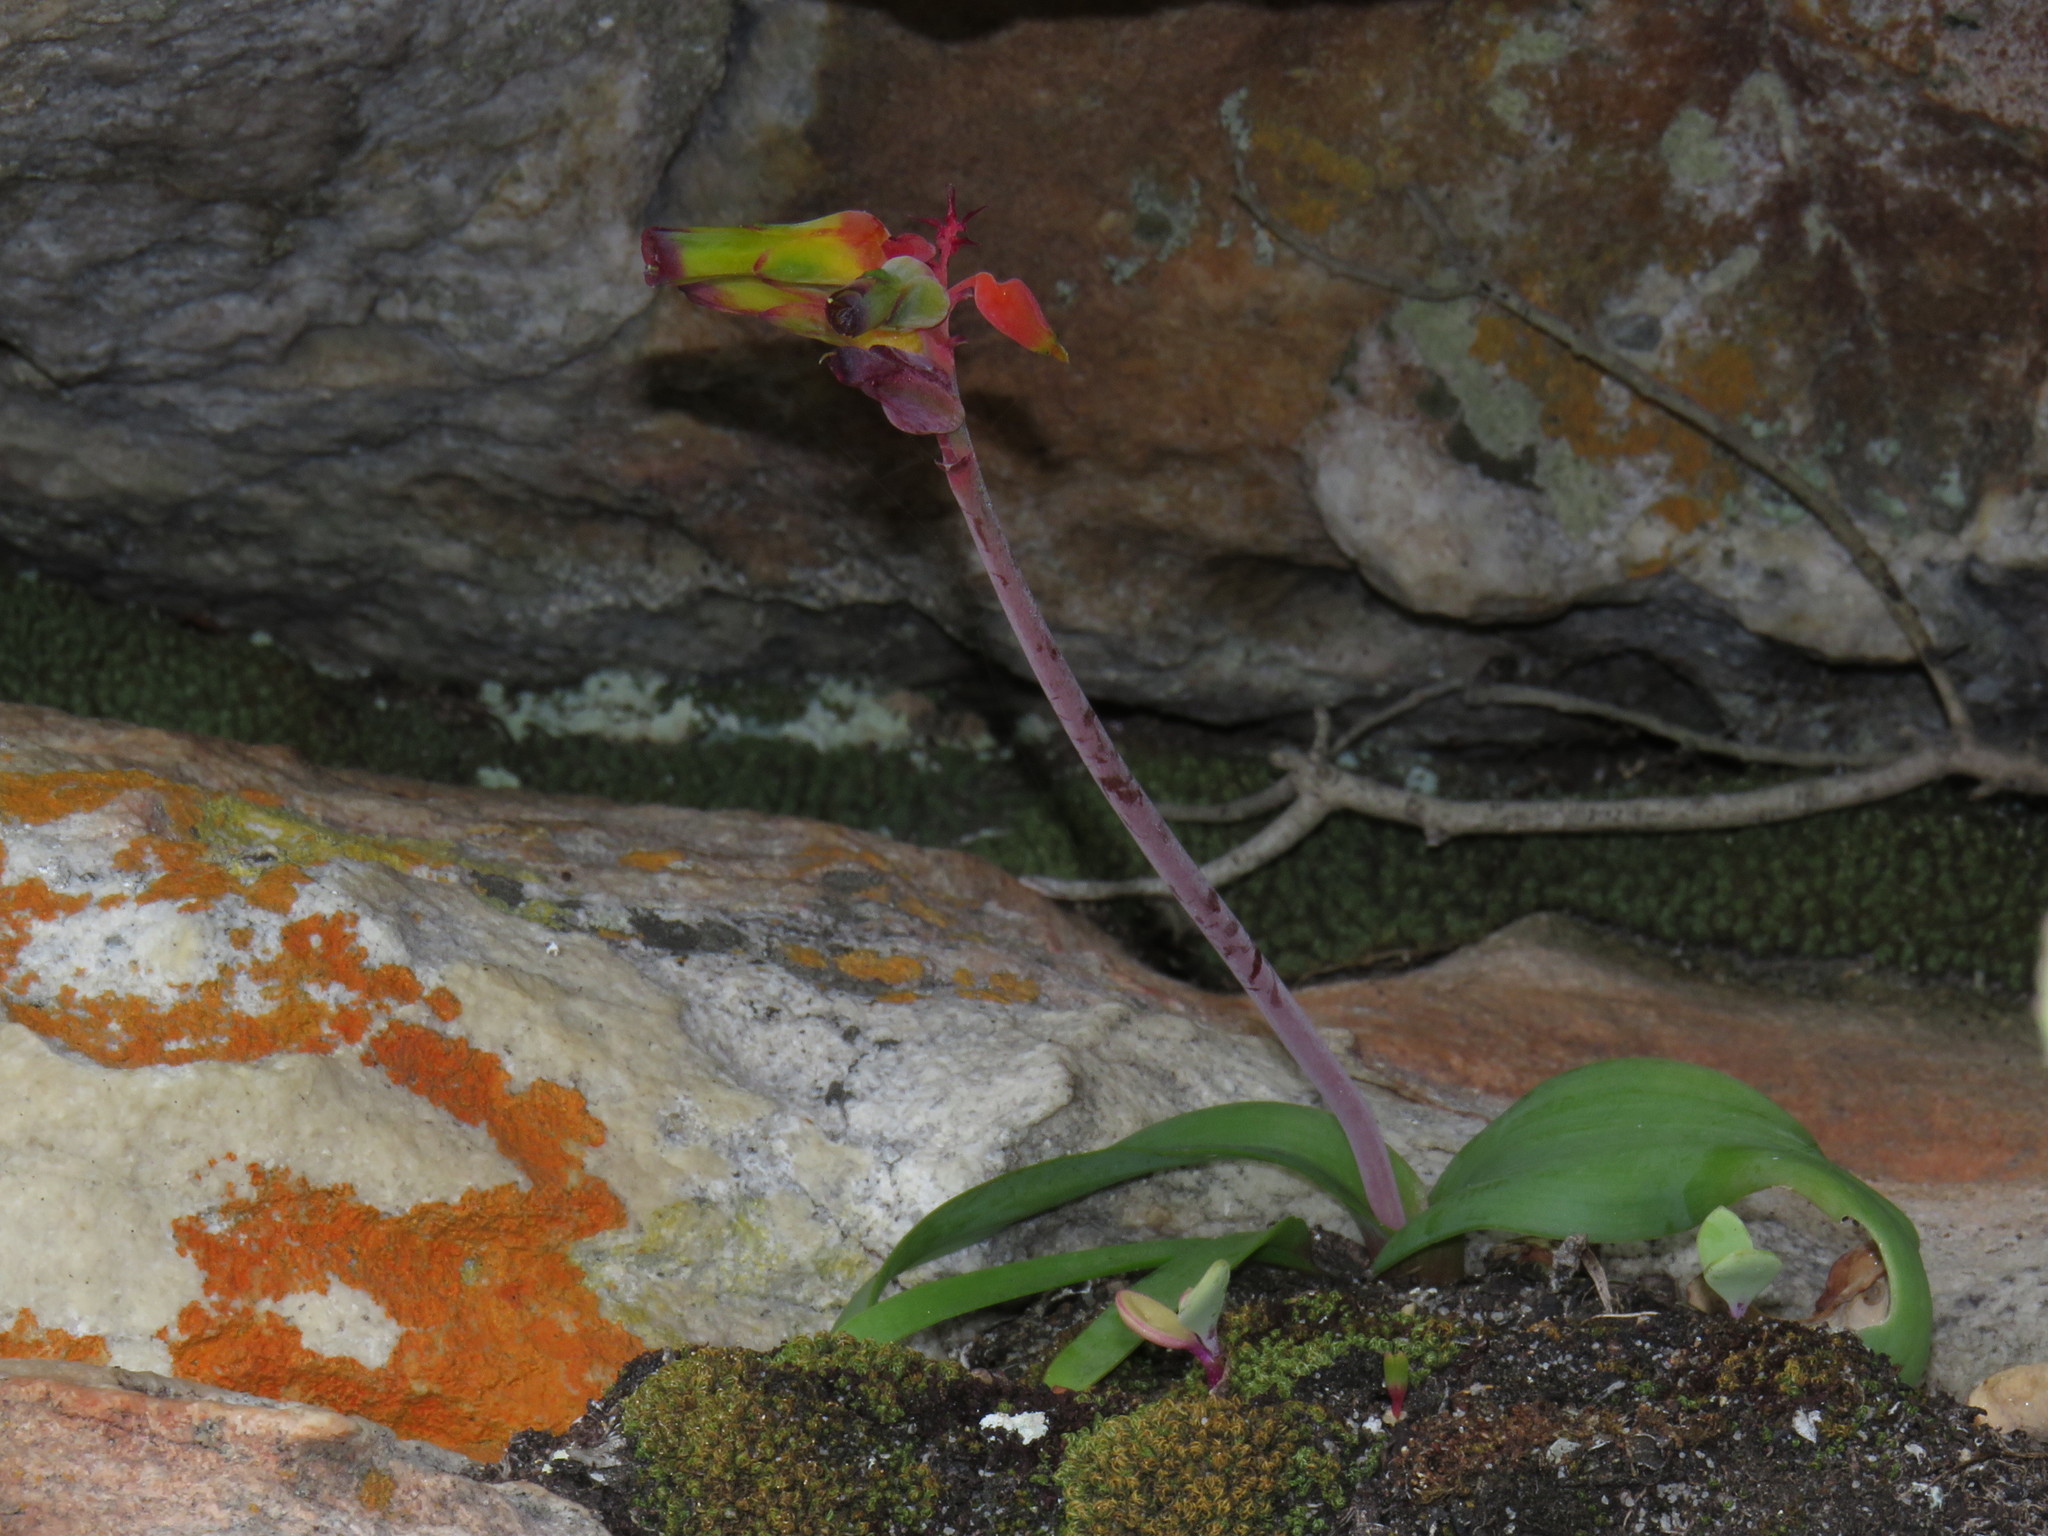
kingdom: Plantae
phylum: Tracheophyta
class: Liliopsida
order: Asparagales
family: Asparagaceae
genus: Lachenalia
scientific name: Lachenalia luteola
